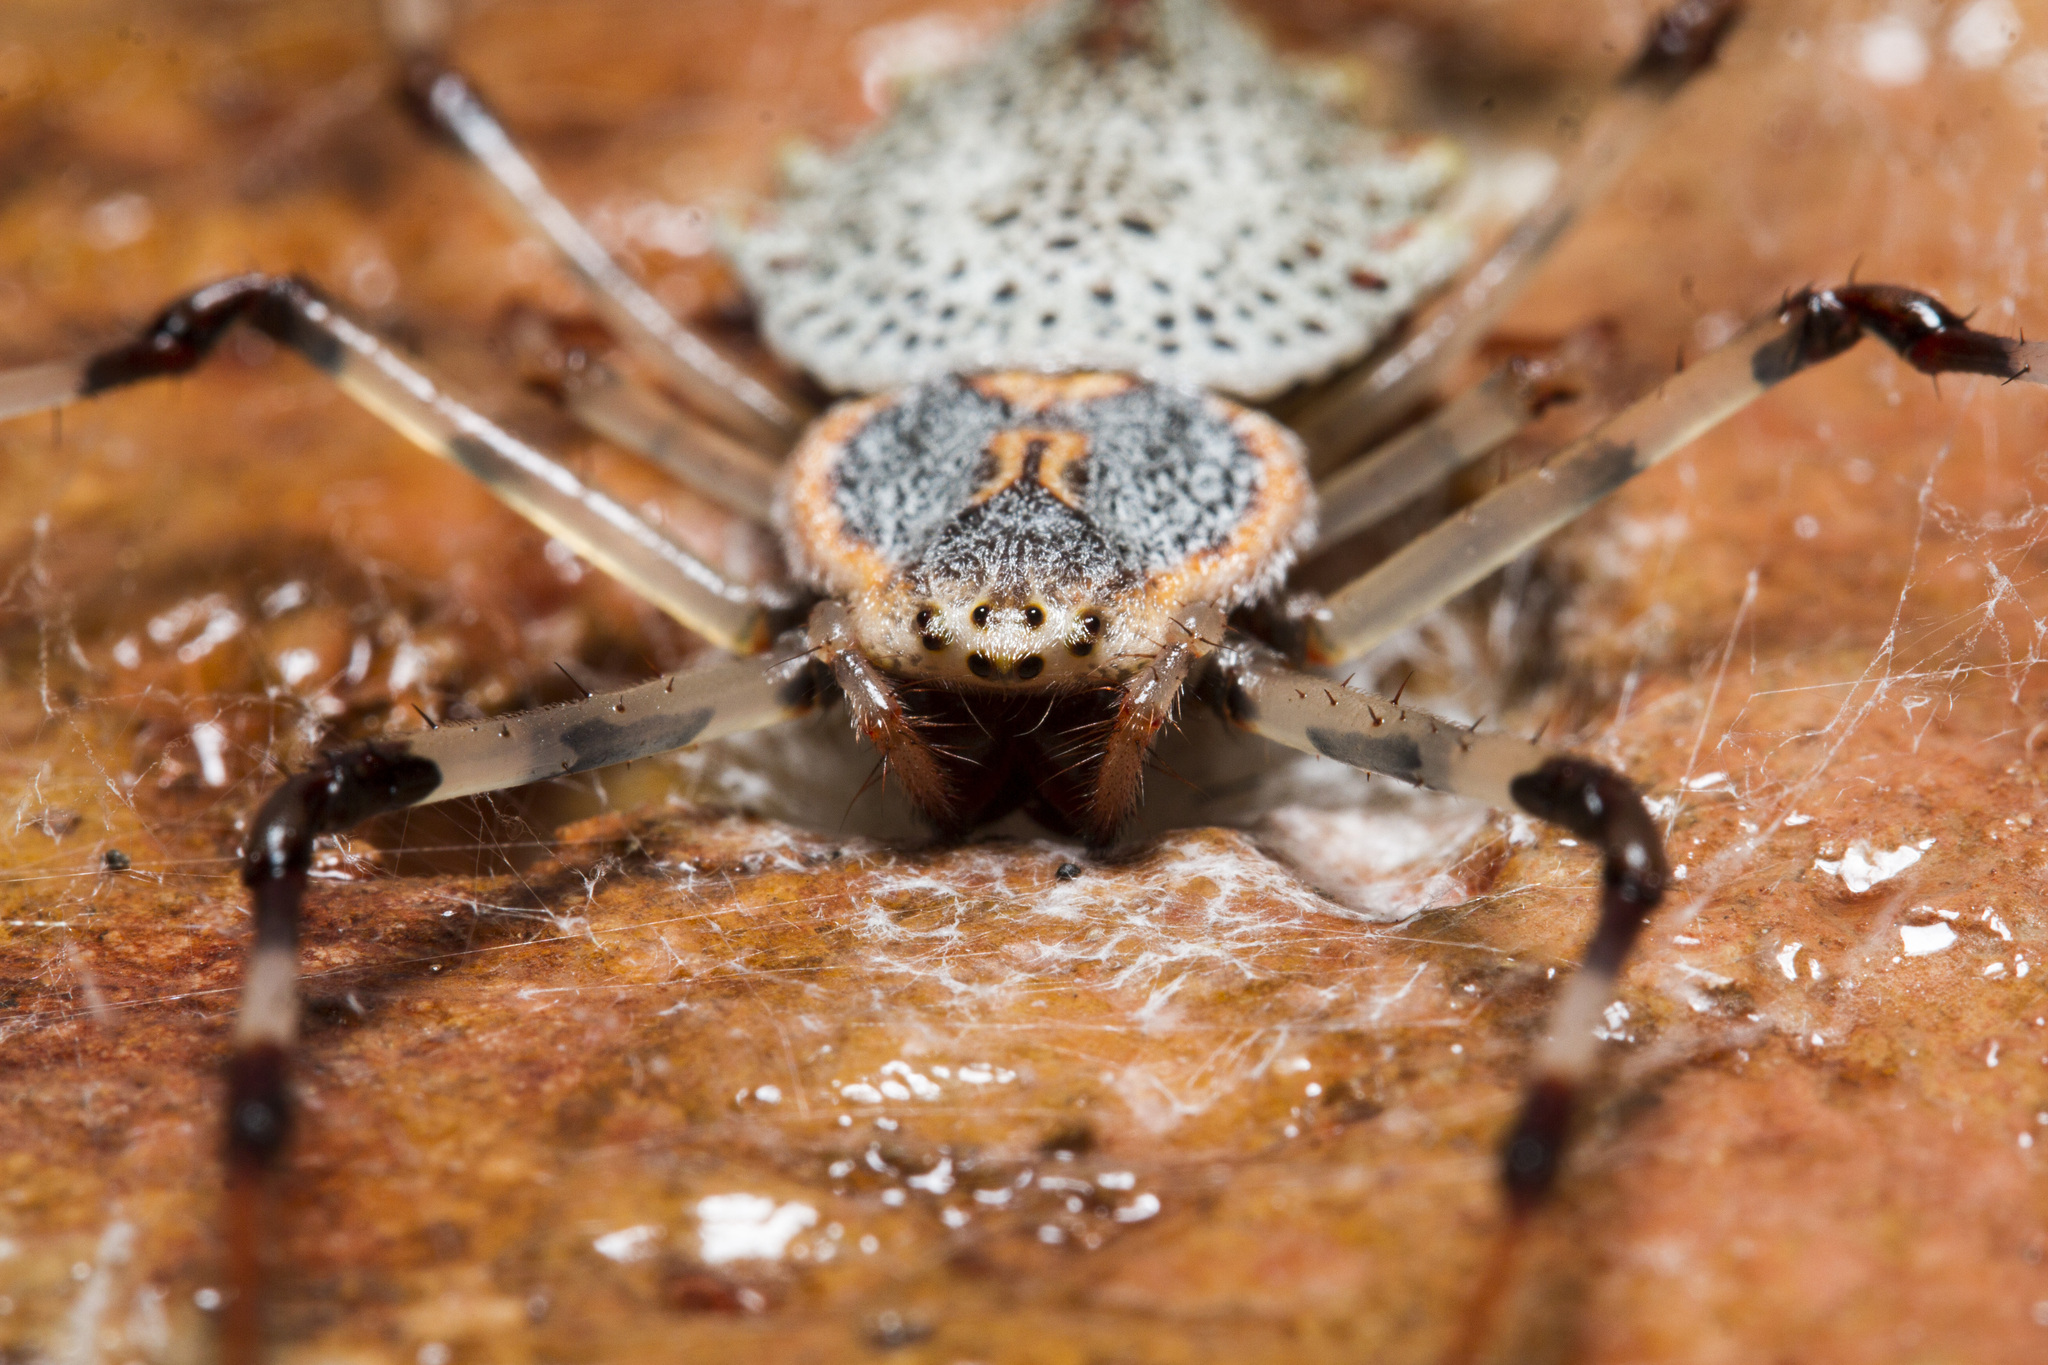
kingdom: Animalia
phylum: Arthropoda
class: Arachnida
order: Araneae
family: Araneidae
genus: Herennia
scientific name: Herennia multipuncta
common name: Spotted coin spider
